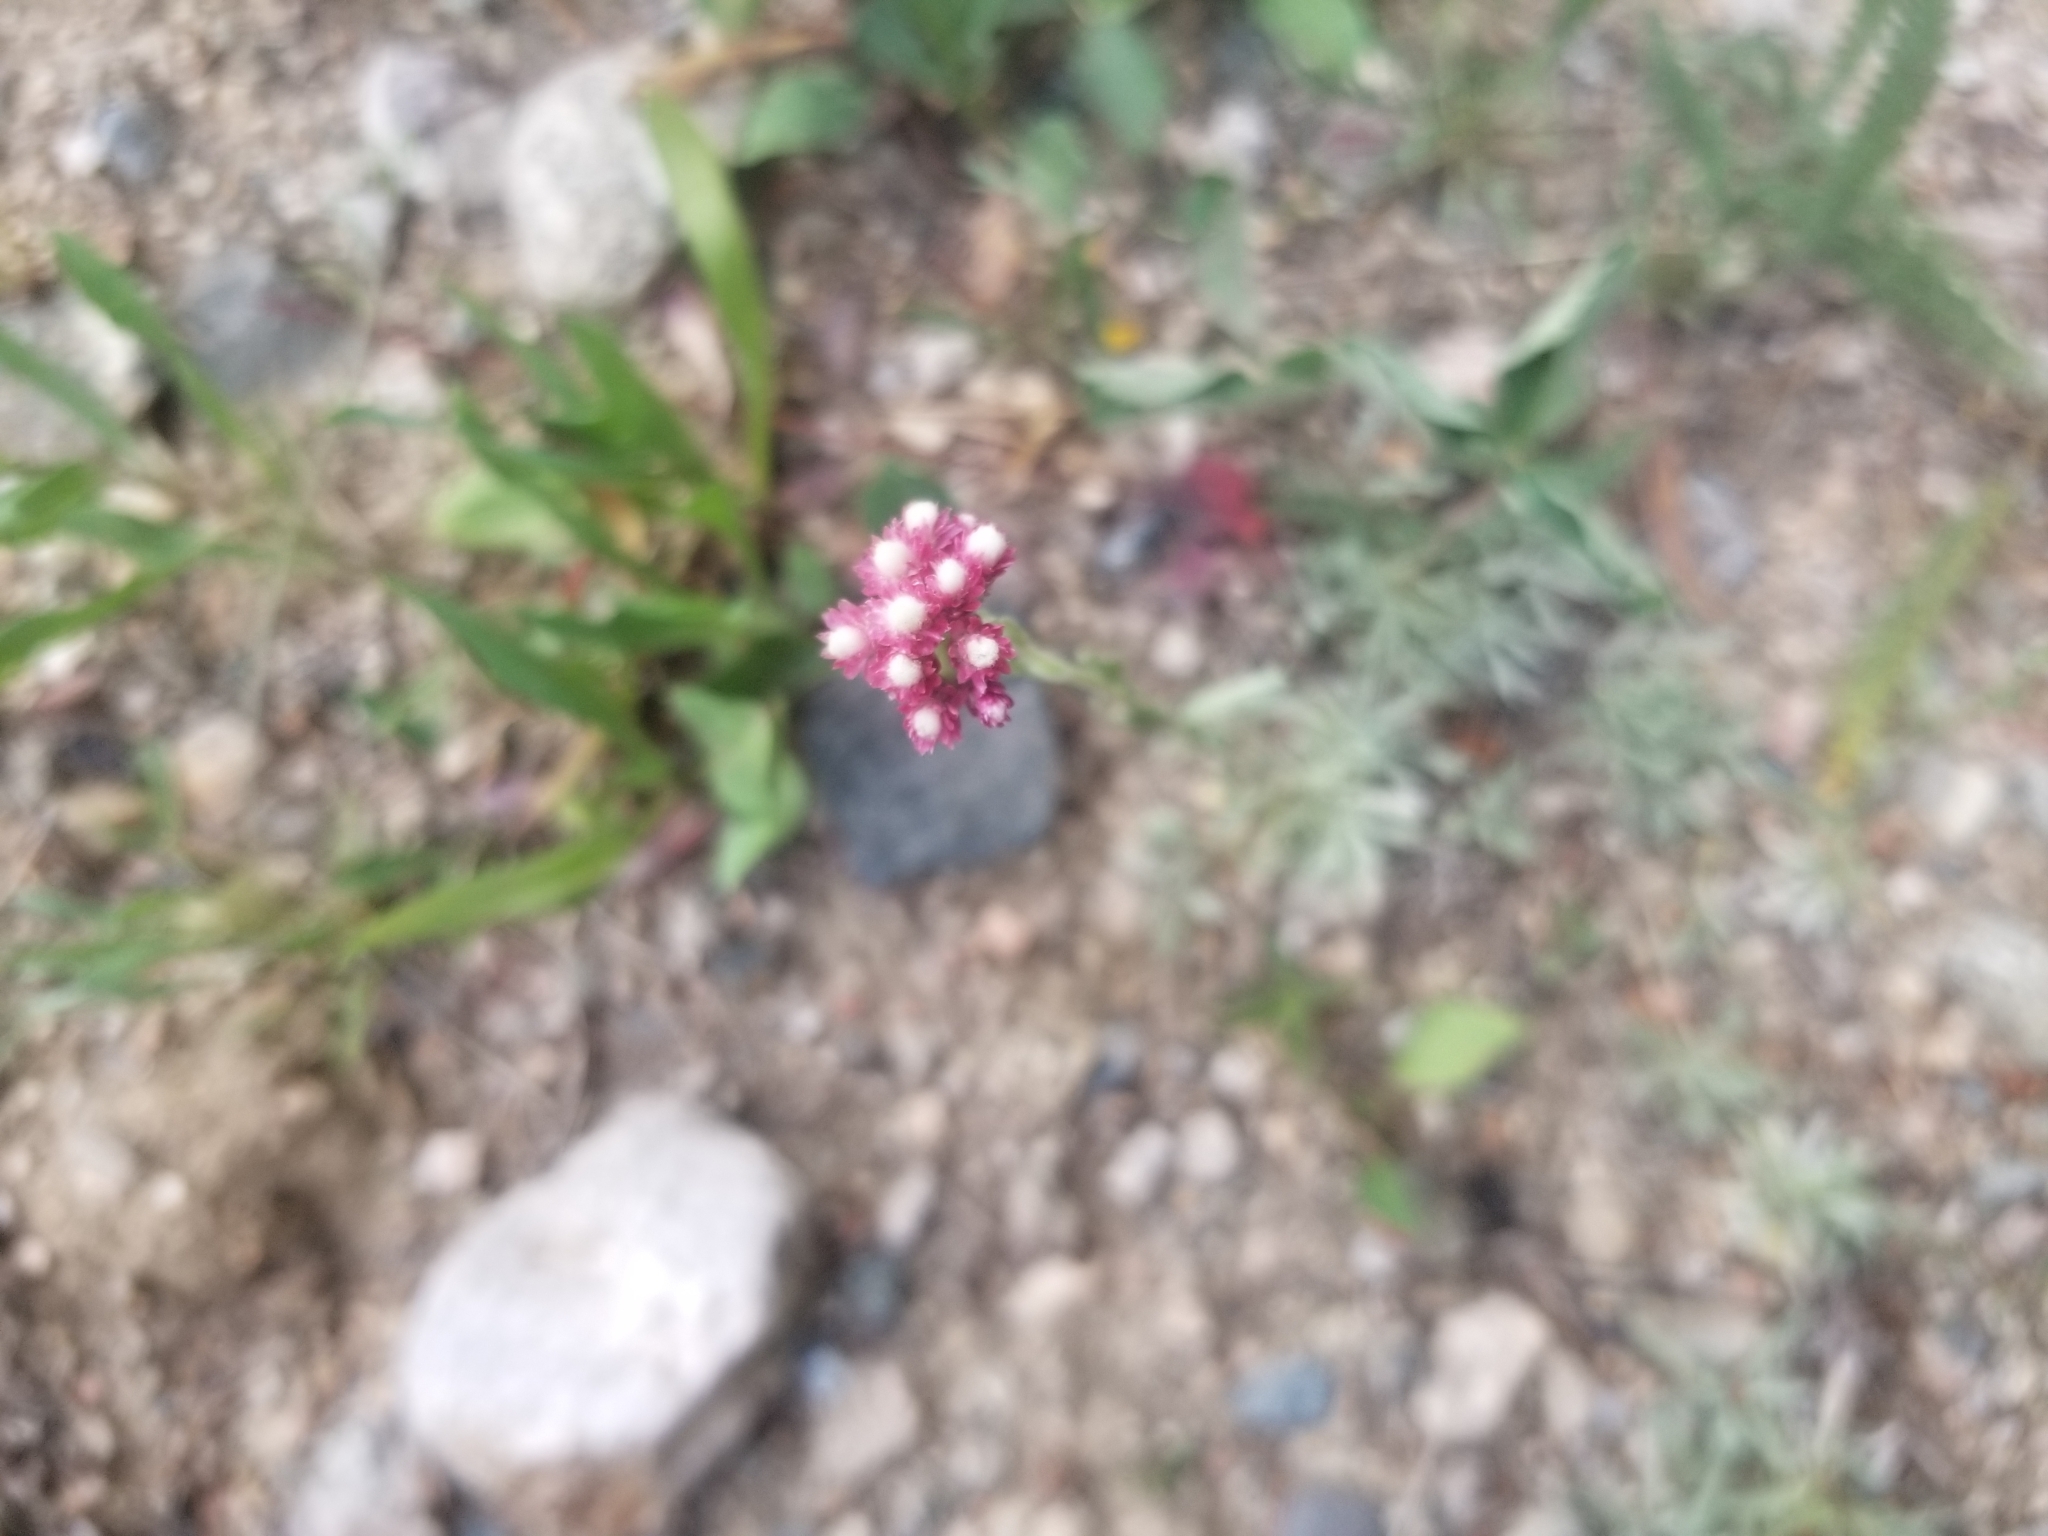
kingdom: Plantae
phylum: Tracheophyta
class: Magnoliopsida
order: Asterales
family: Asteraceae
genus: Antennaria
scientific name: Antennaria rosea
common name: Rosy pussytoes
